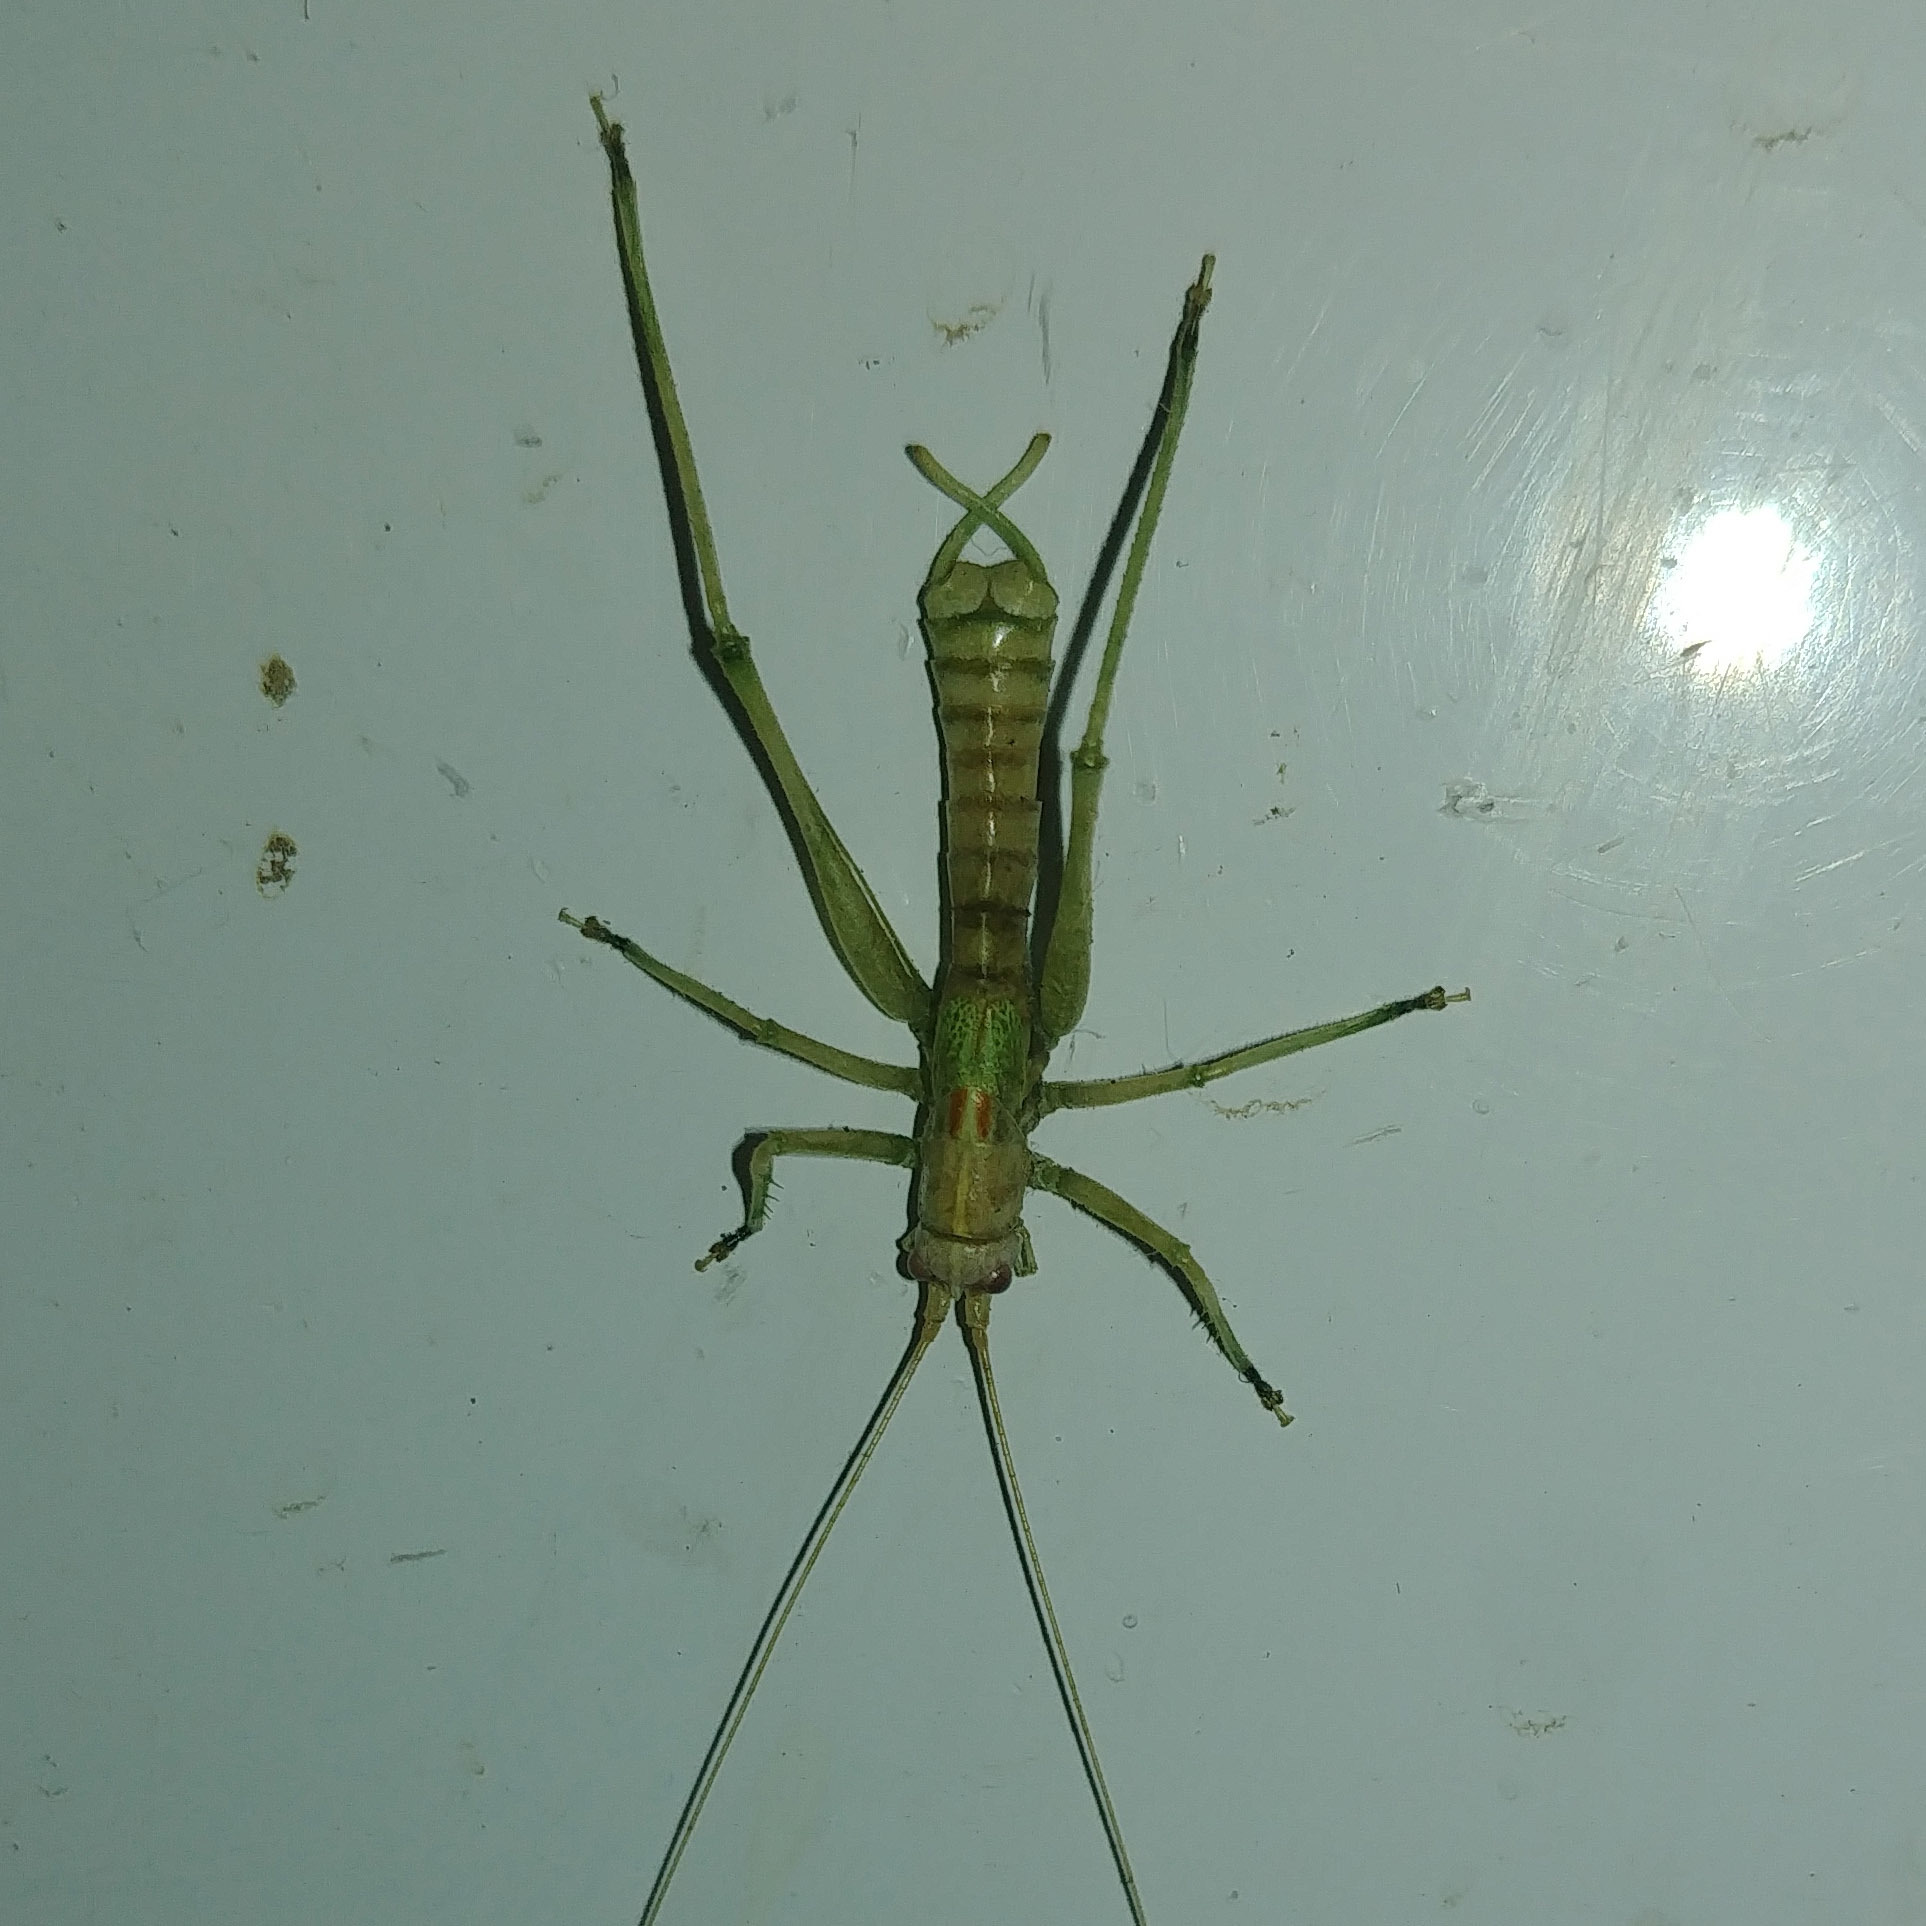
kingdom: Animalia
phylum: Arthropoda
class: Insecta
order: Orthoptera
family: Tettigoniidae
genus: Meconema
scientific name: Meconema meridionale
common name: Southern oak bush-cricket
